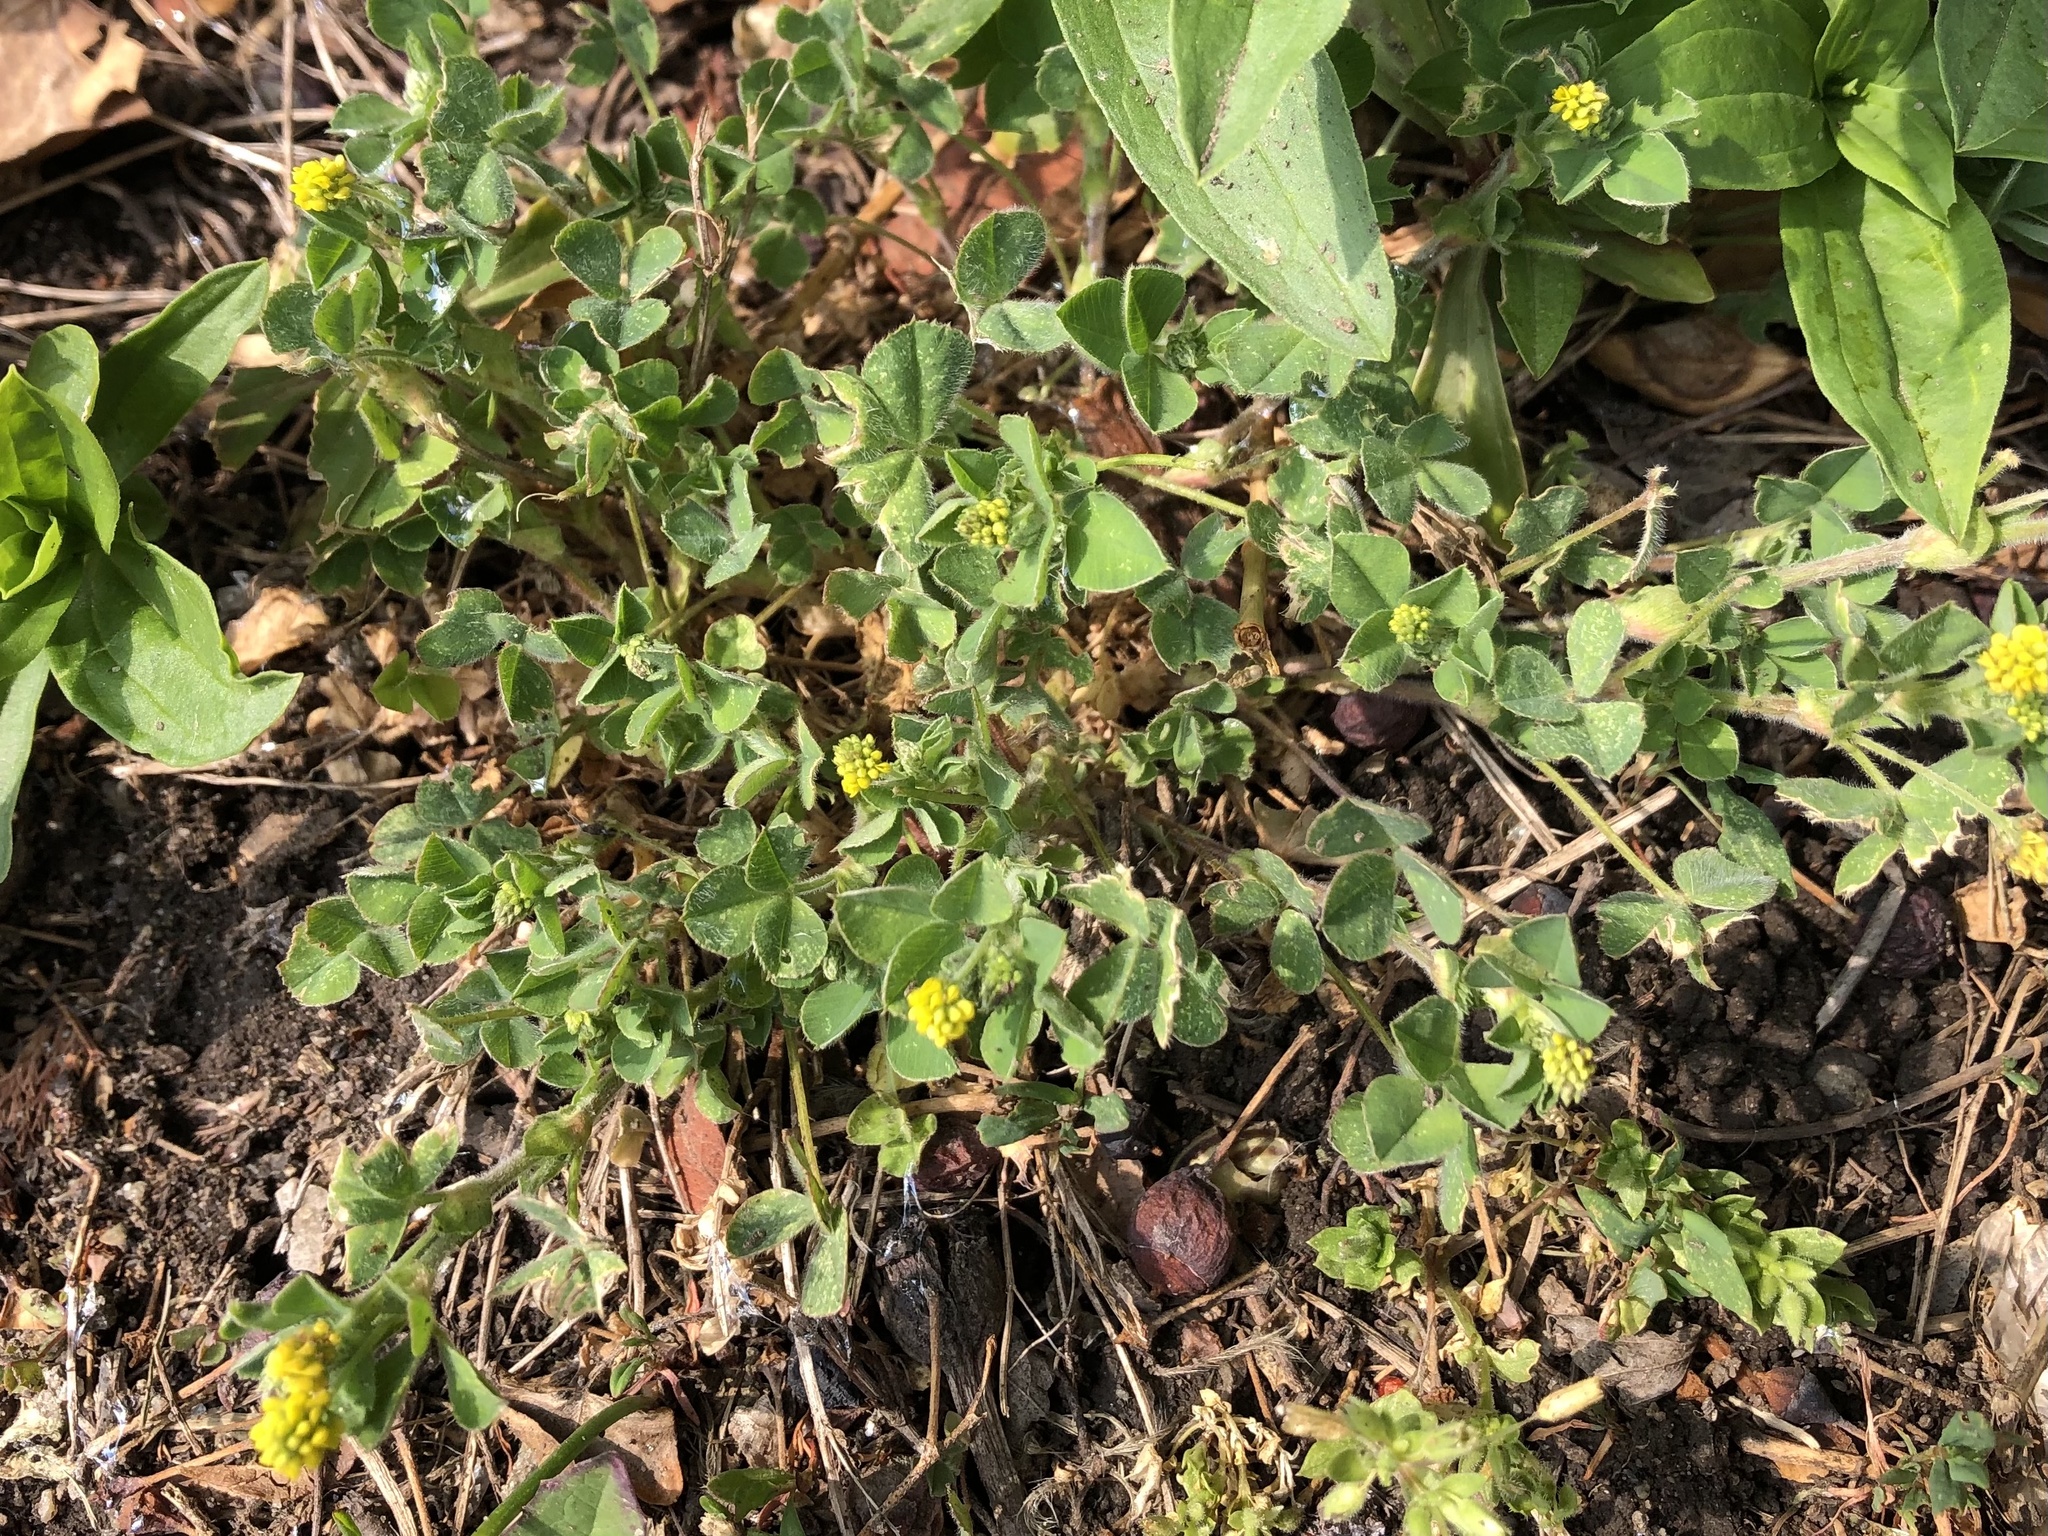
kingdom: Plantae
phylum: Tracheophyta
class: Magnoliopsida
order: Fabales
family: Fabaceae
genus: Medicago
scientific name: Medicago lupulina
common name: Black medick
